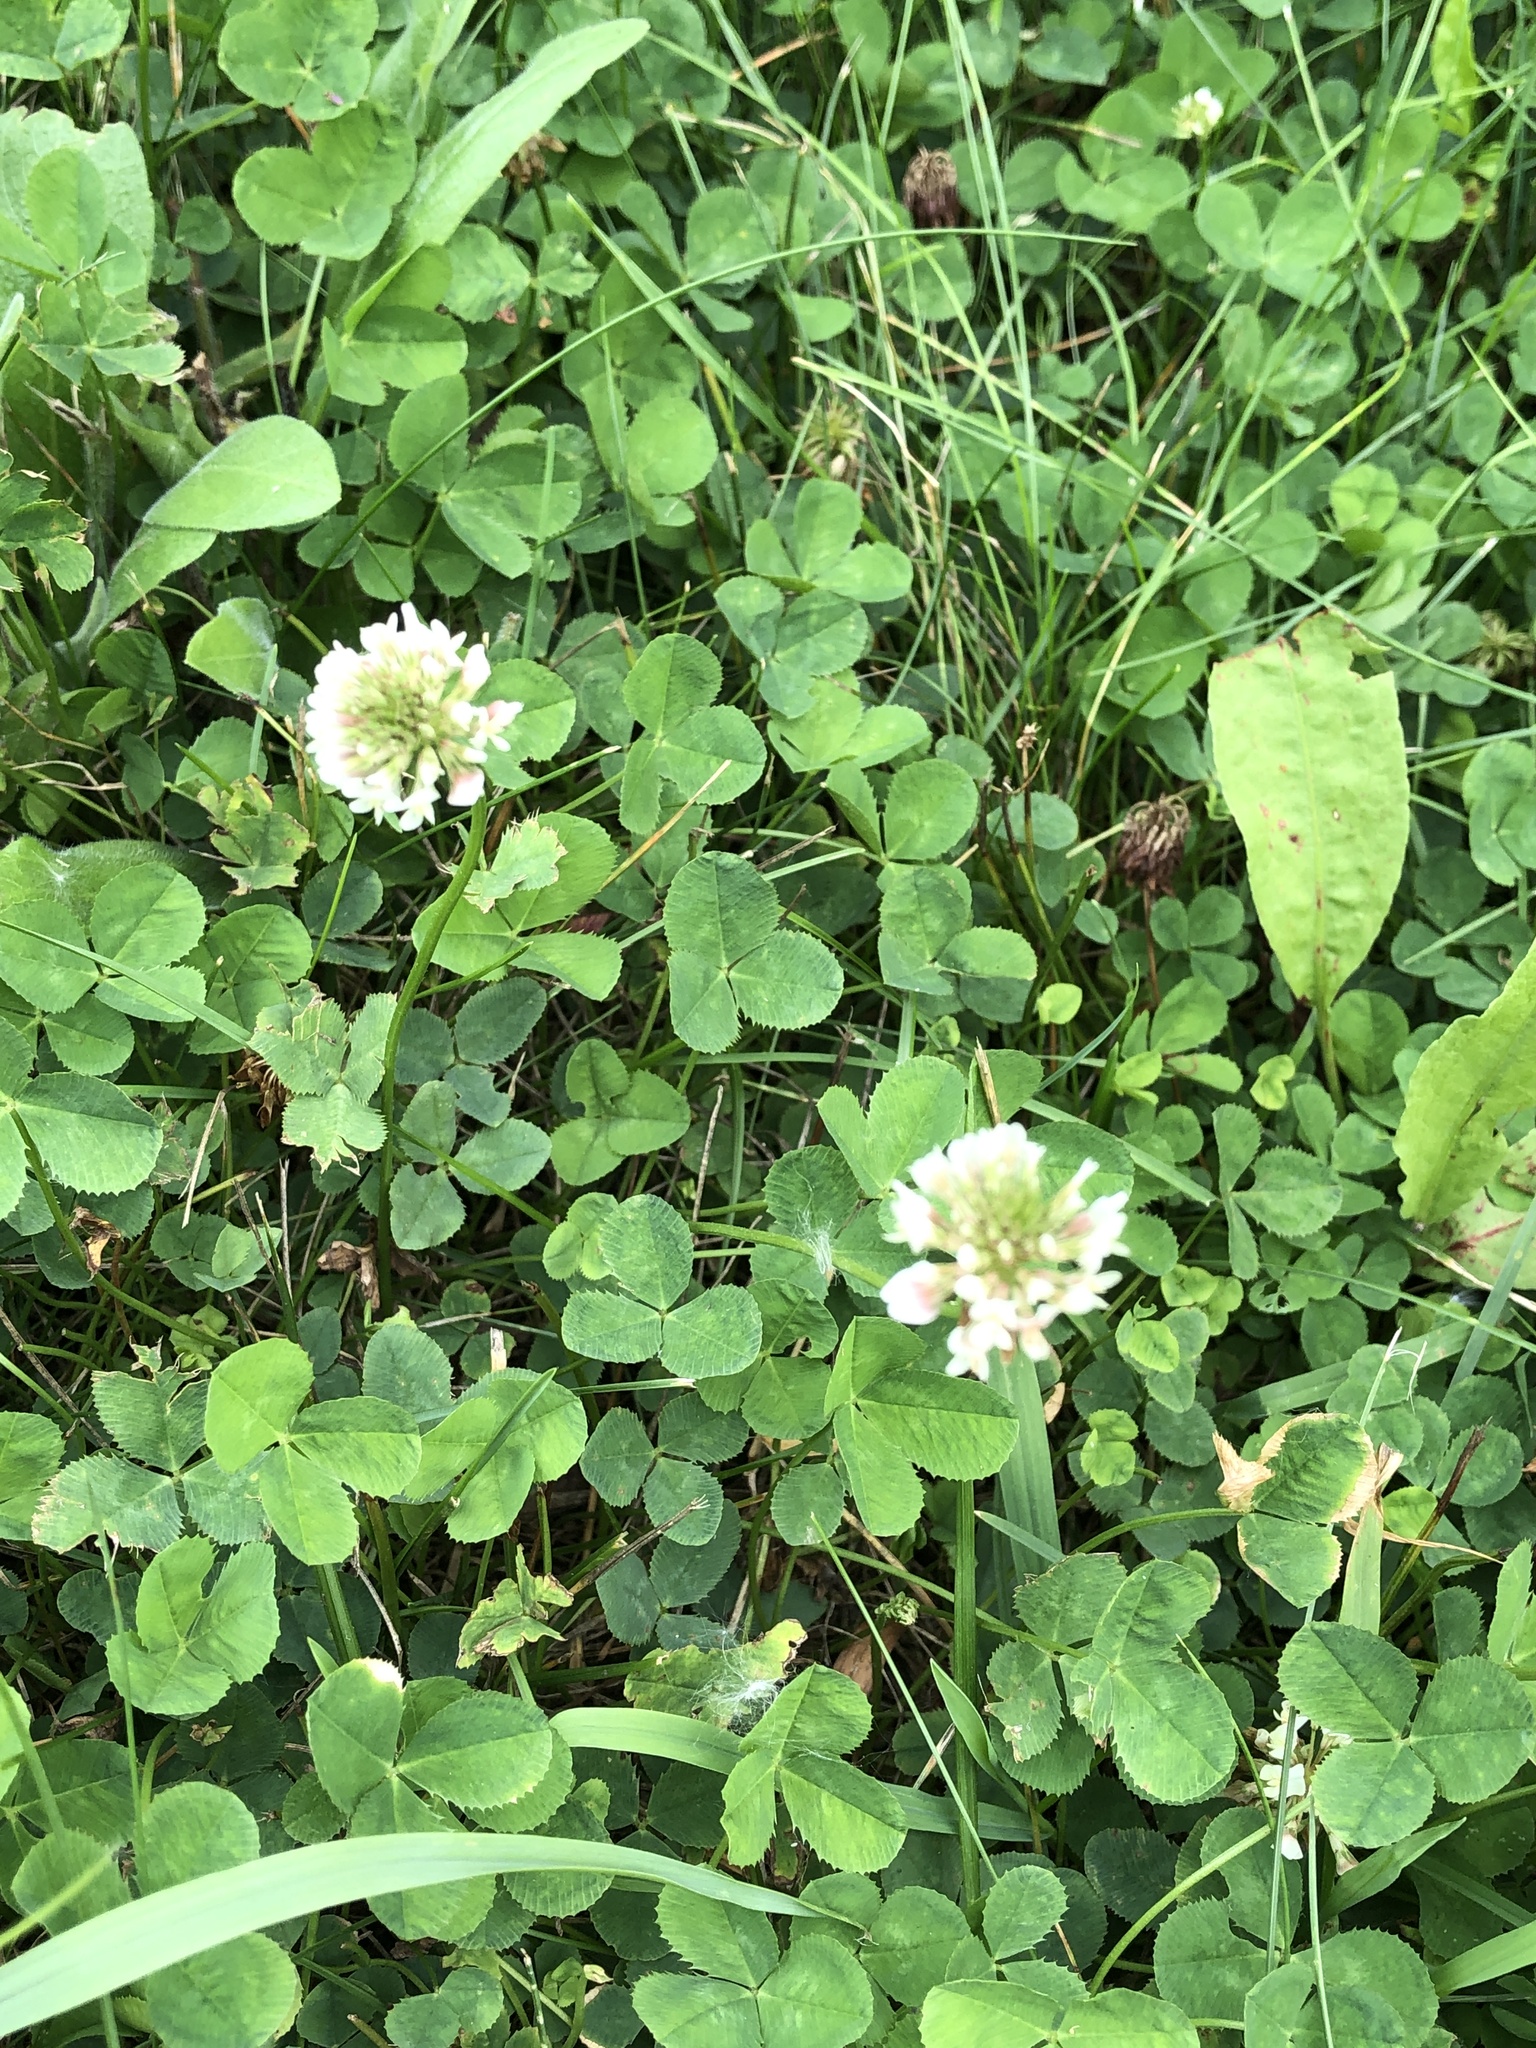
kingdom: Plantae
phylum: Tracheophyta
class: Magnoliopsida
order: Fabales
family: Fabaceae
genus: Trifolium
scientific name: Trifolium repens
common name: White clover
